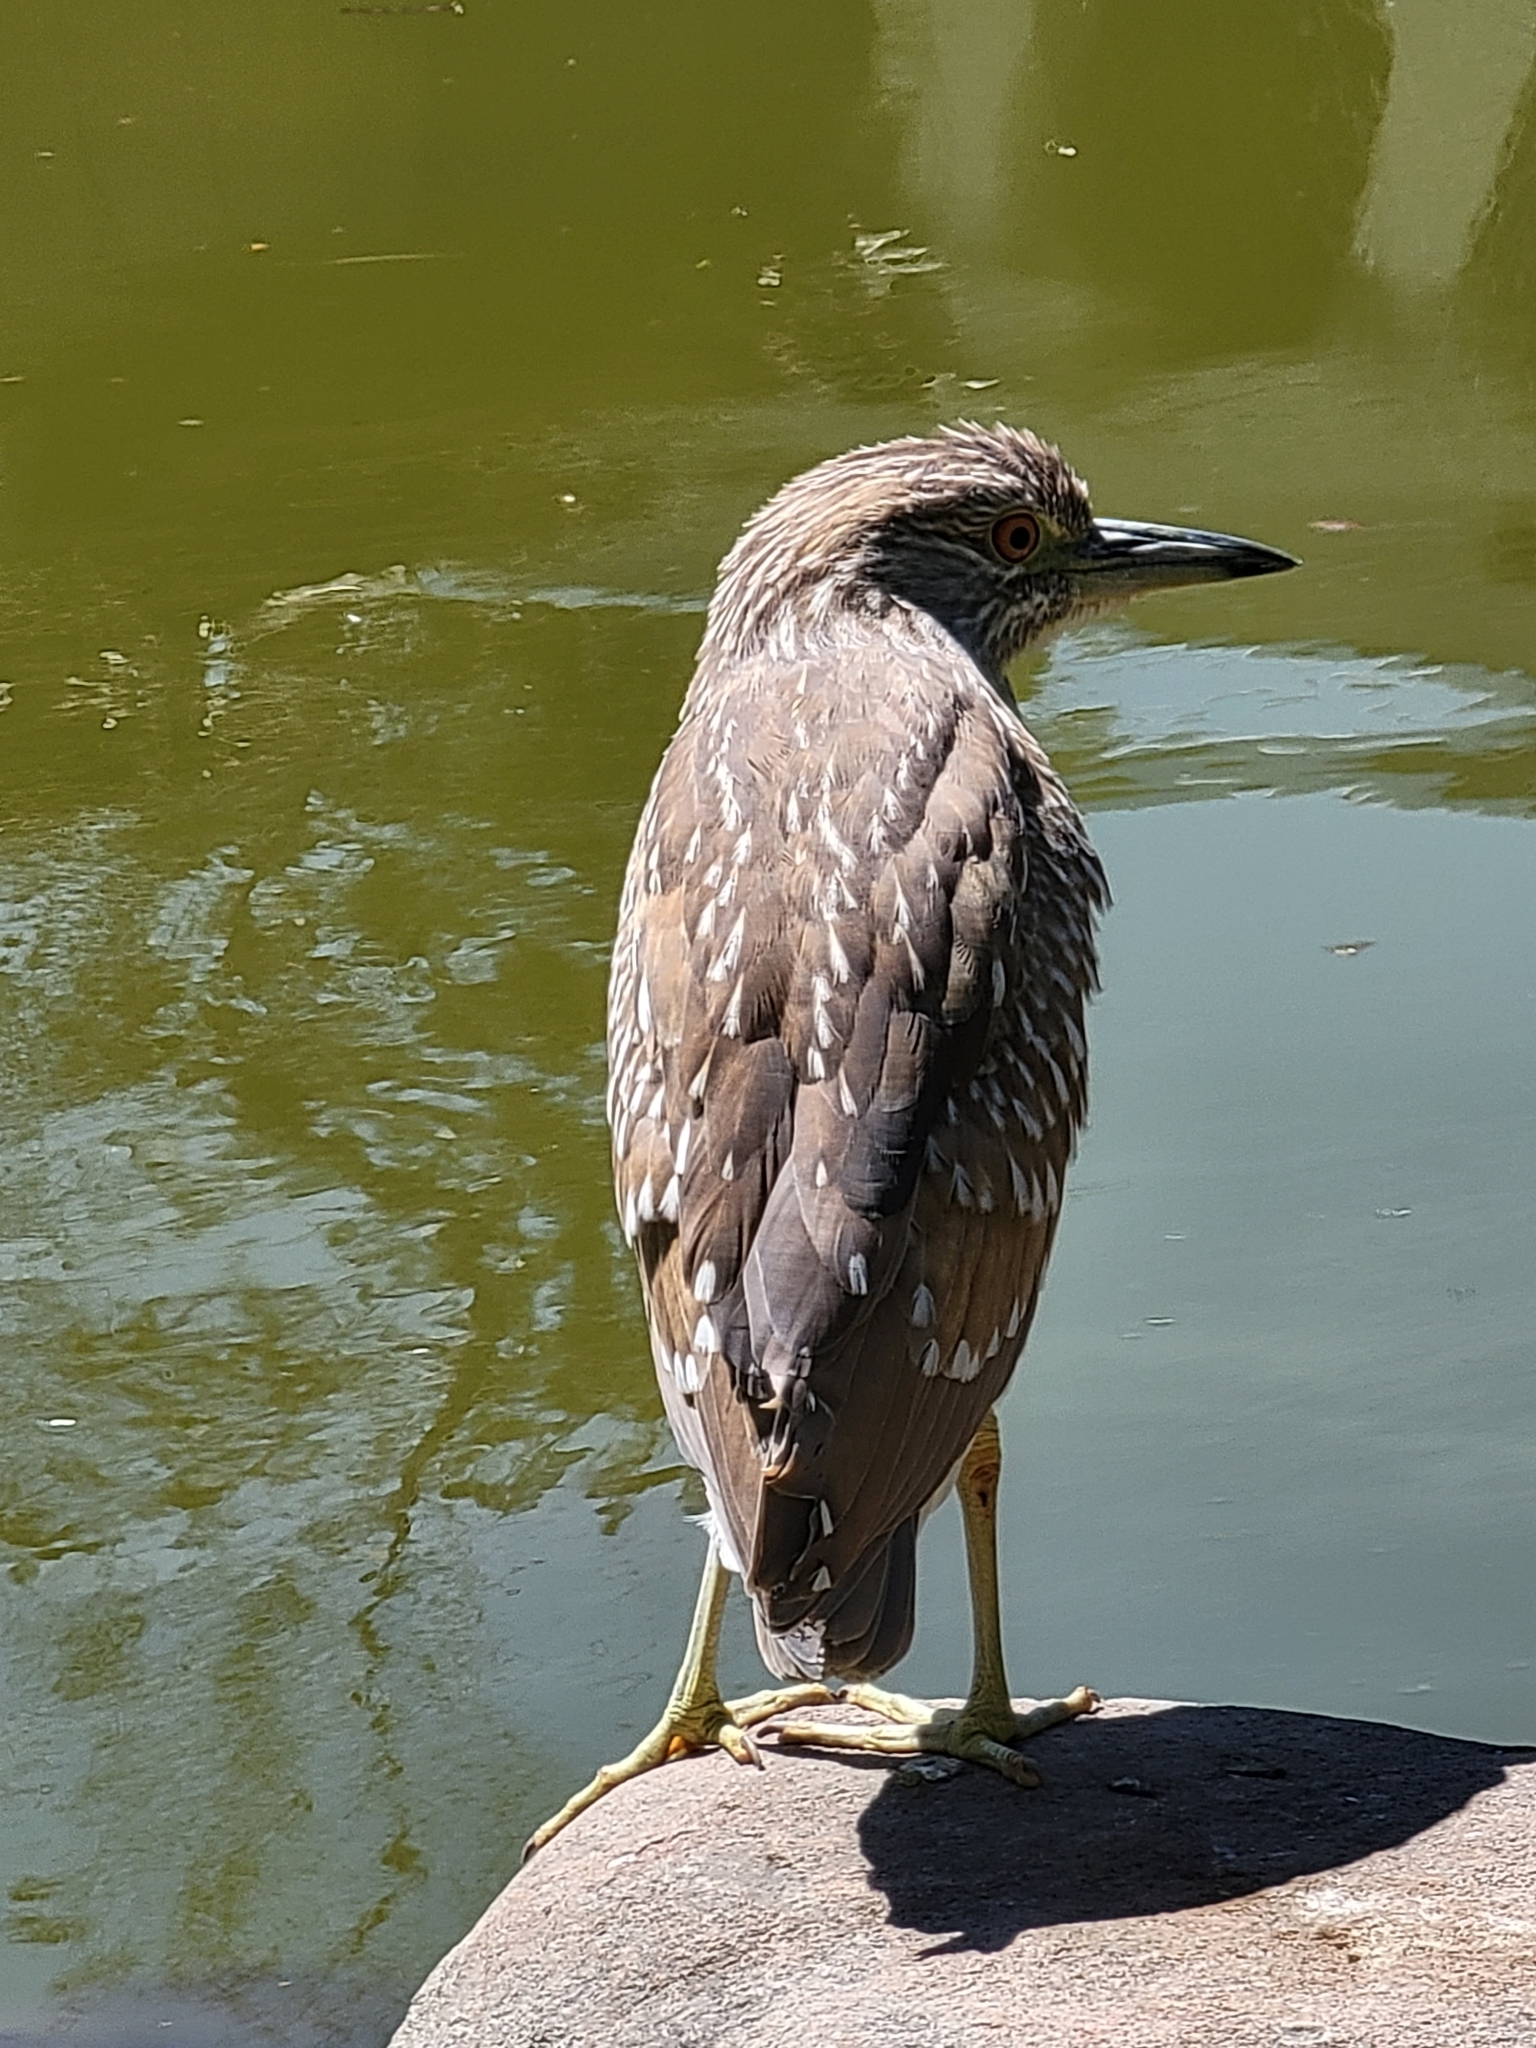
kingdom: Animalia
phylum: Chordata
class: Aves
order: Pelecaniformes
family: Ardeidae
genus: Nycticorax
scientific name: Nycticorax nycticorax
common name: Black-crowned night heron
